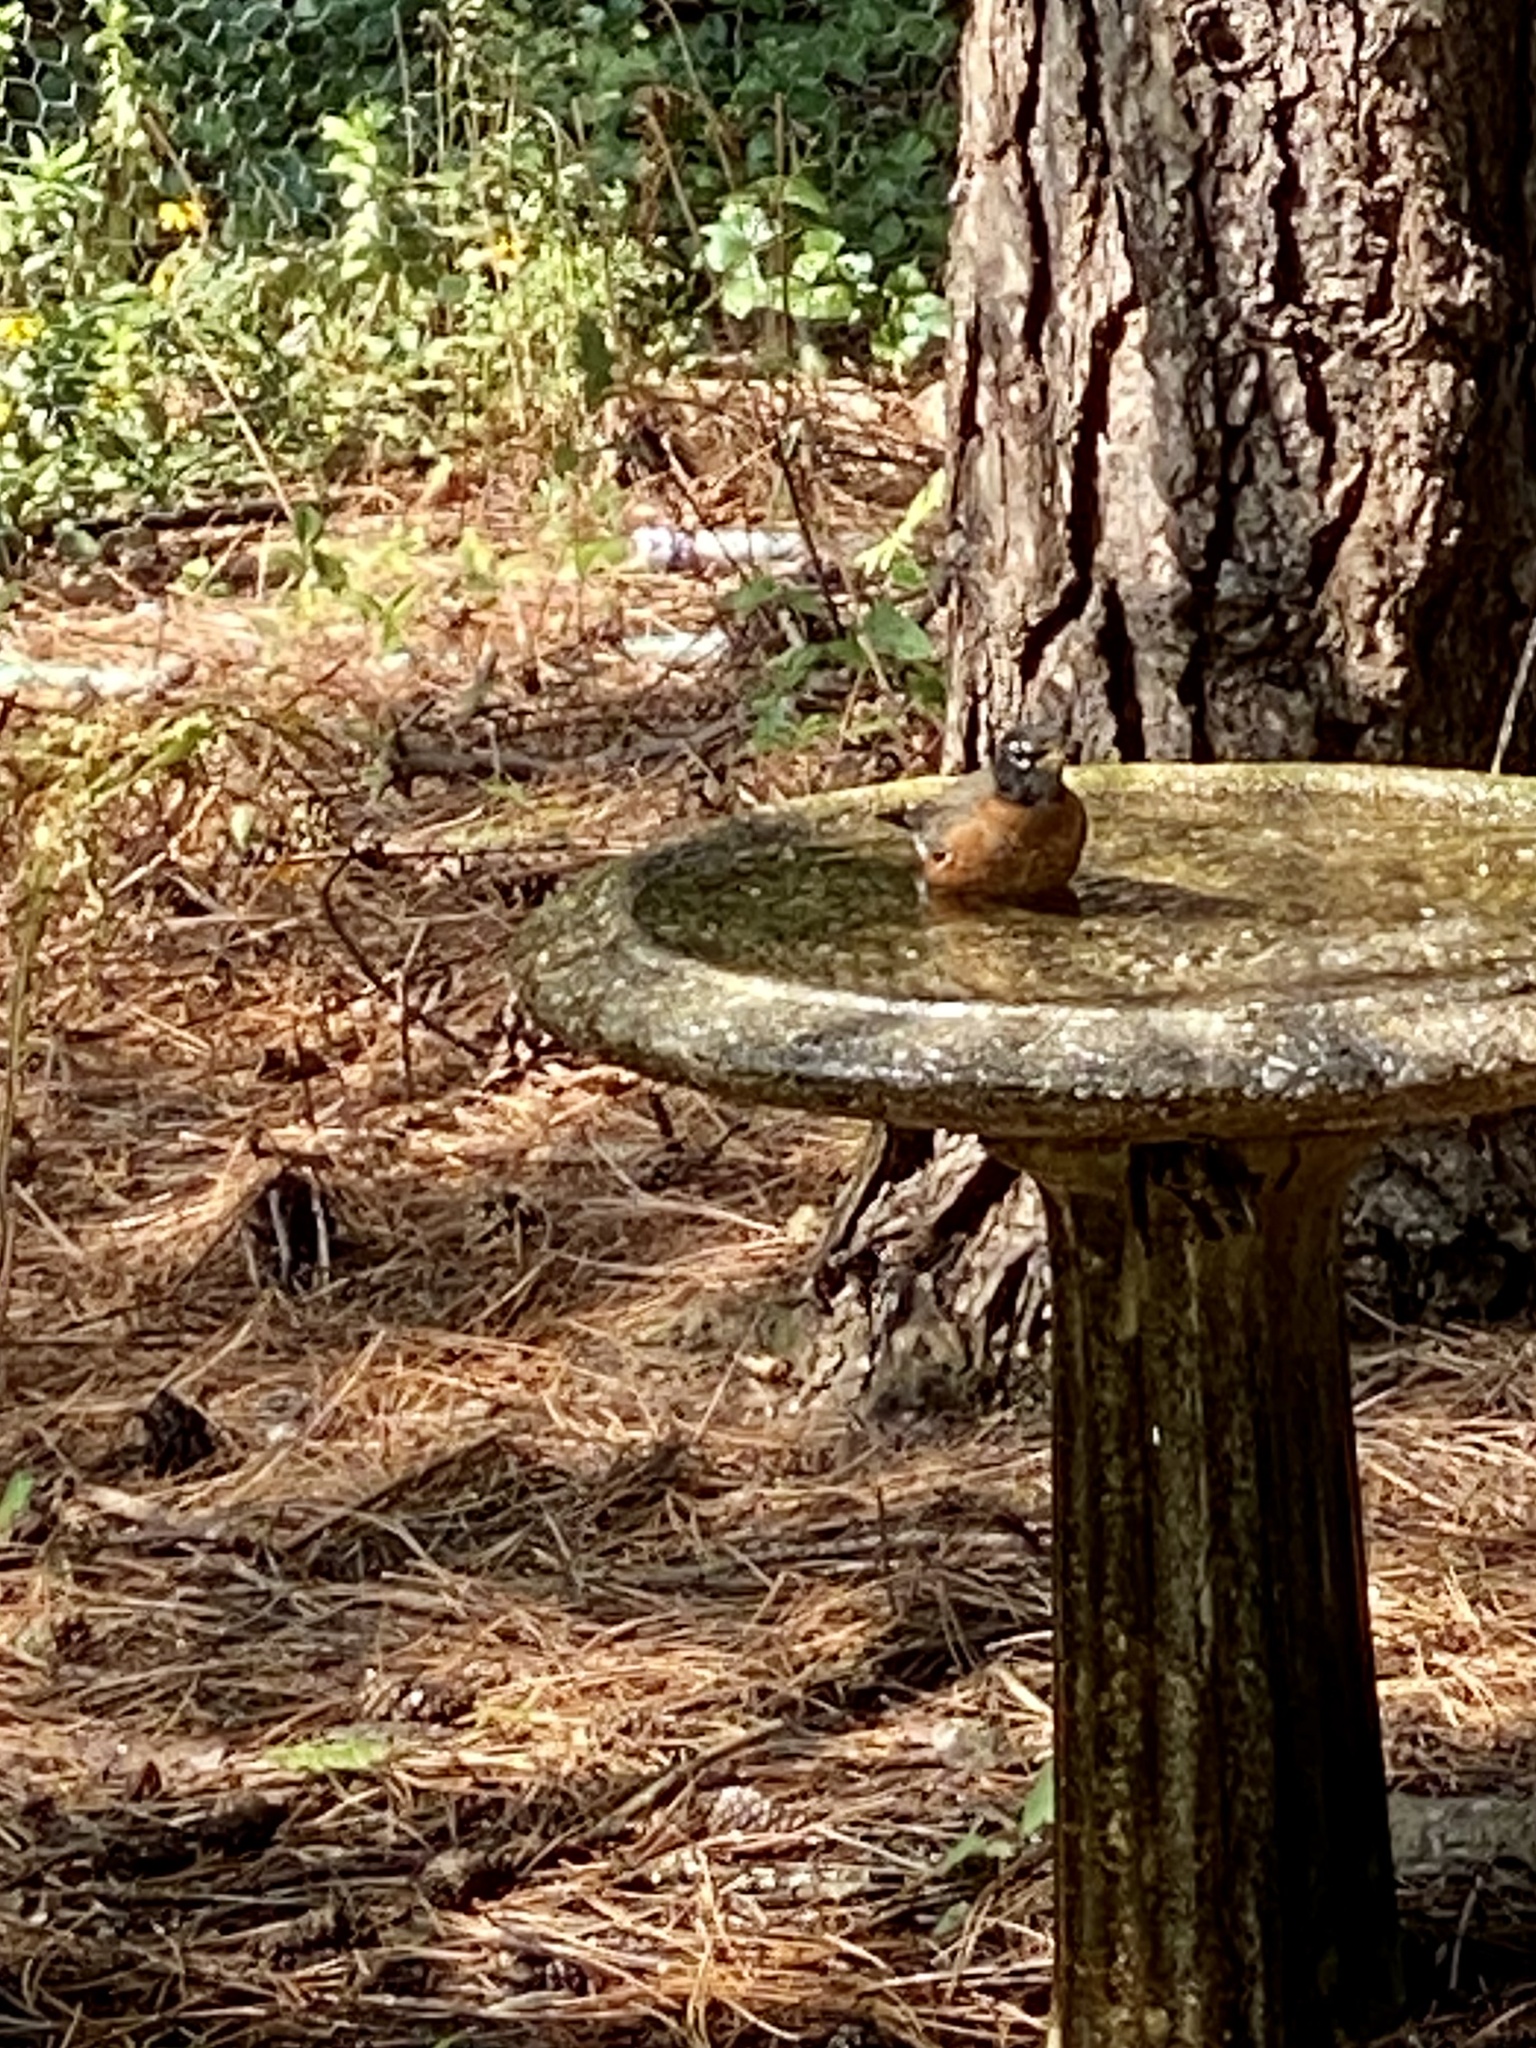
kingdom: Animalia
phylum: Chordata
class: Aves
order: Passeriformes
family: Turdidae
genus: Turdus
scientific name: Turdus migratorius
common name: American robin
